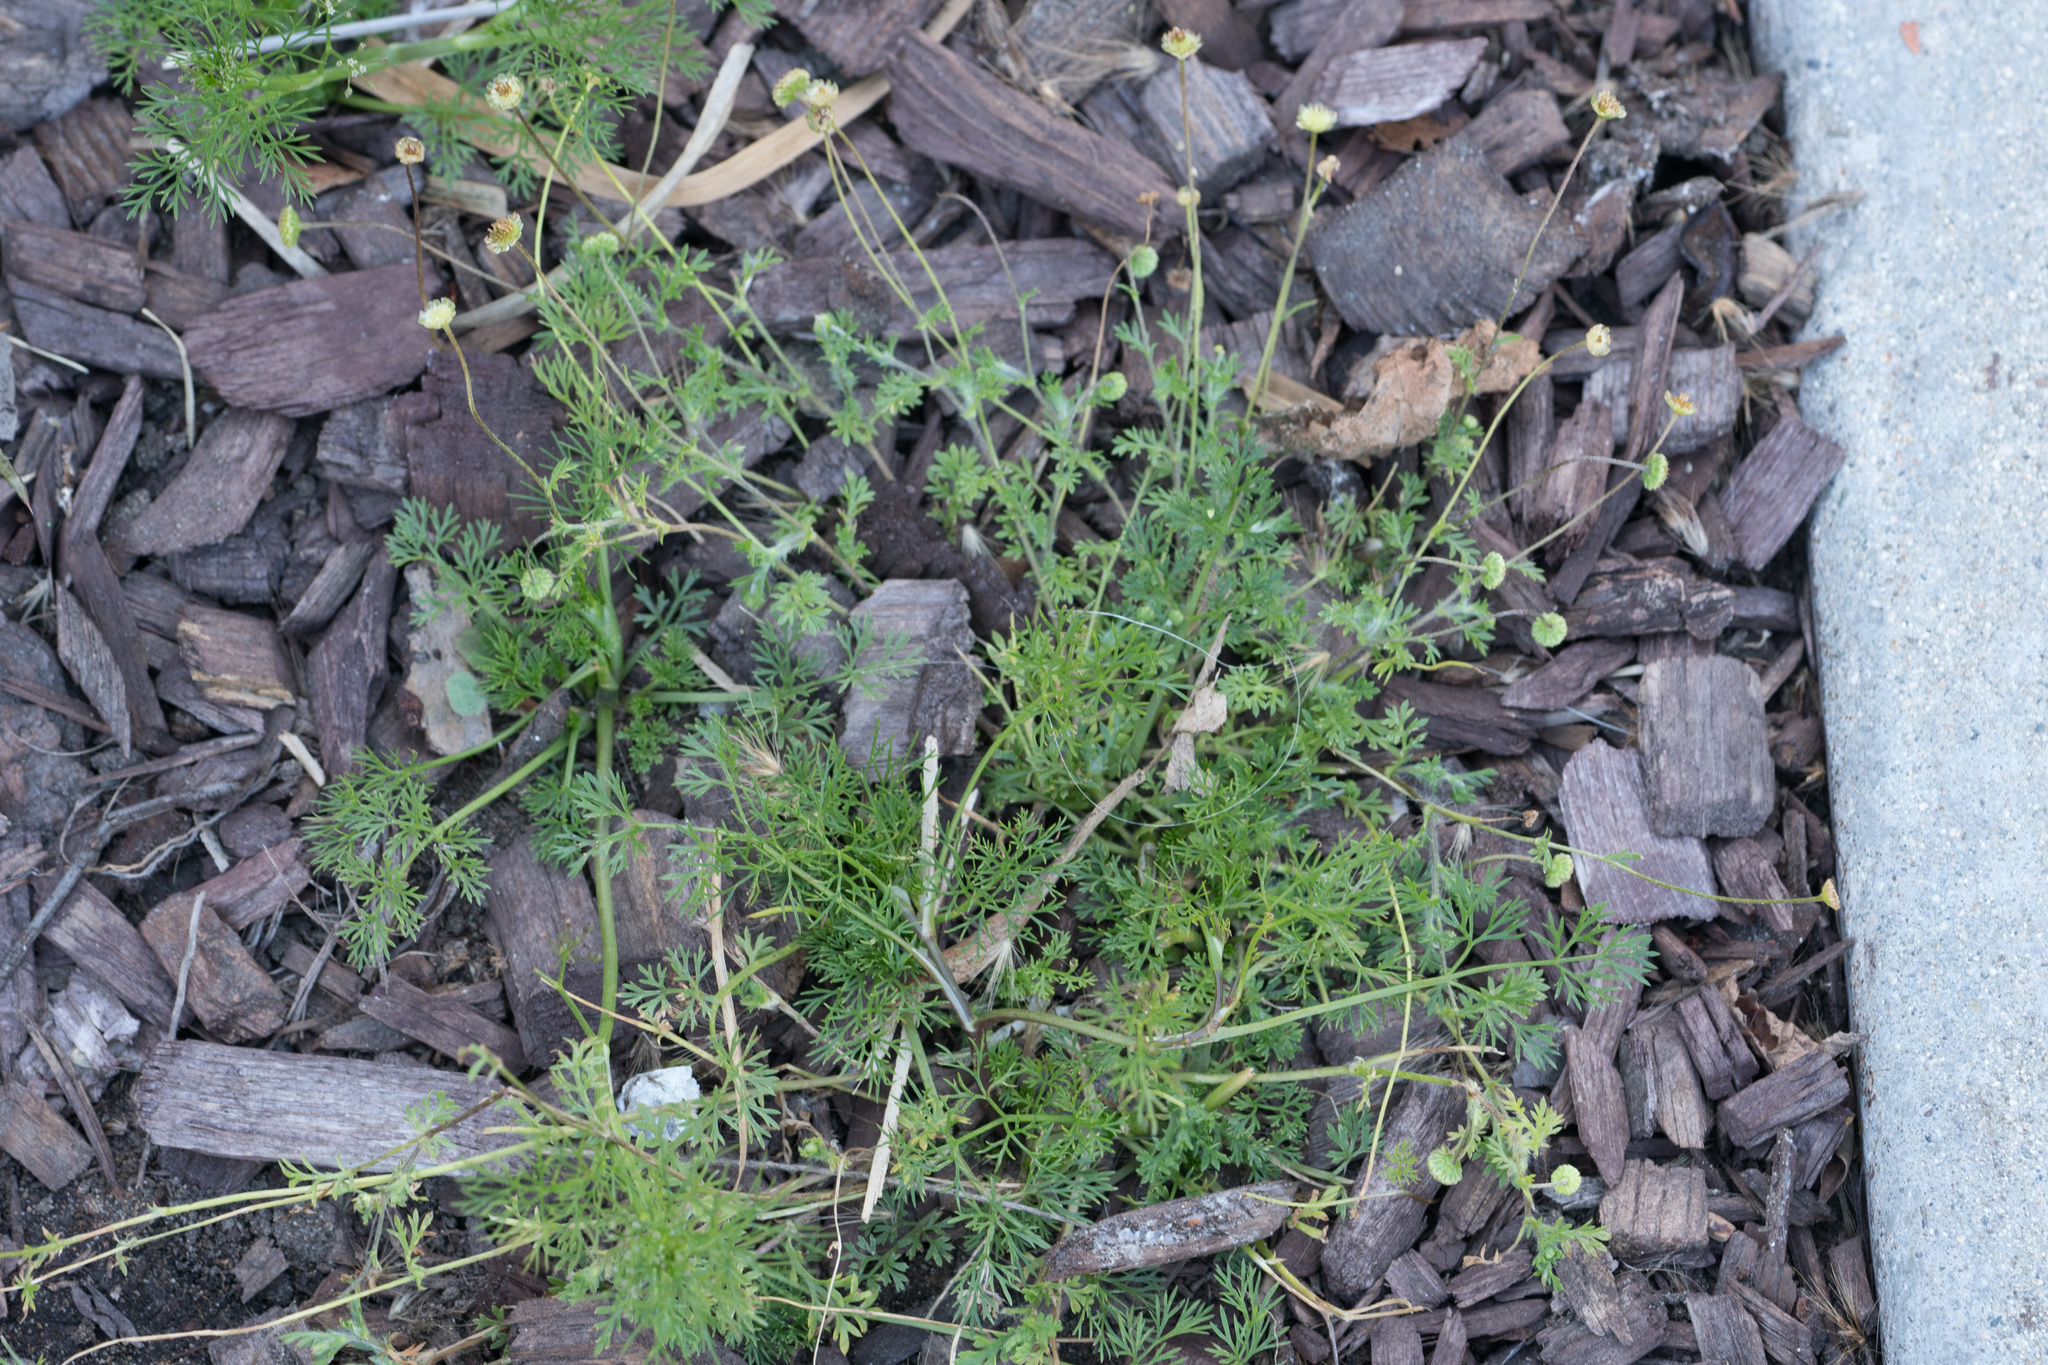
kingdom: Plantae
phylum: Tracheophyta
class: Magnoliopsida
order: Asterales
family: Asteraceae
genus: Cotula
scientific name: Cotula australis
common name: Australian waterbuttons
